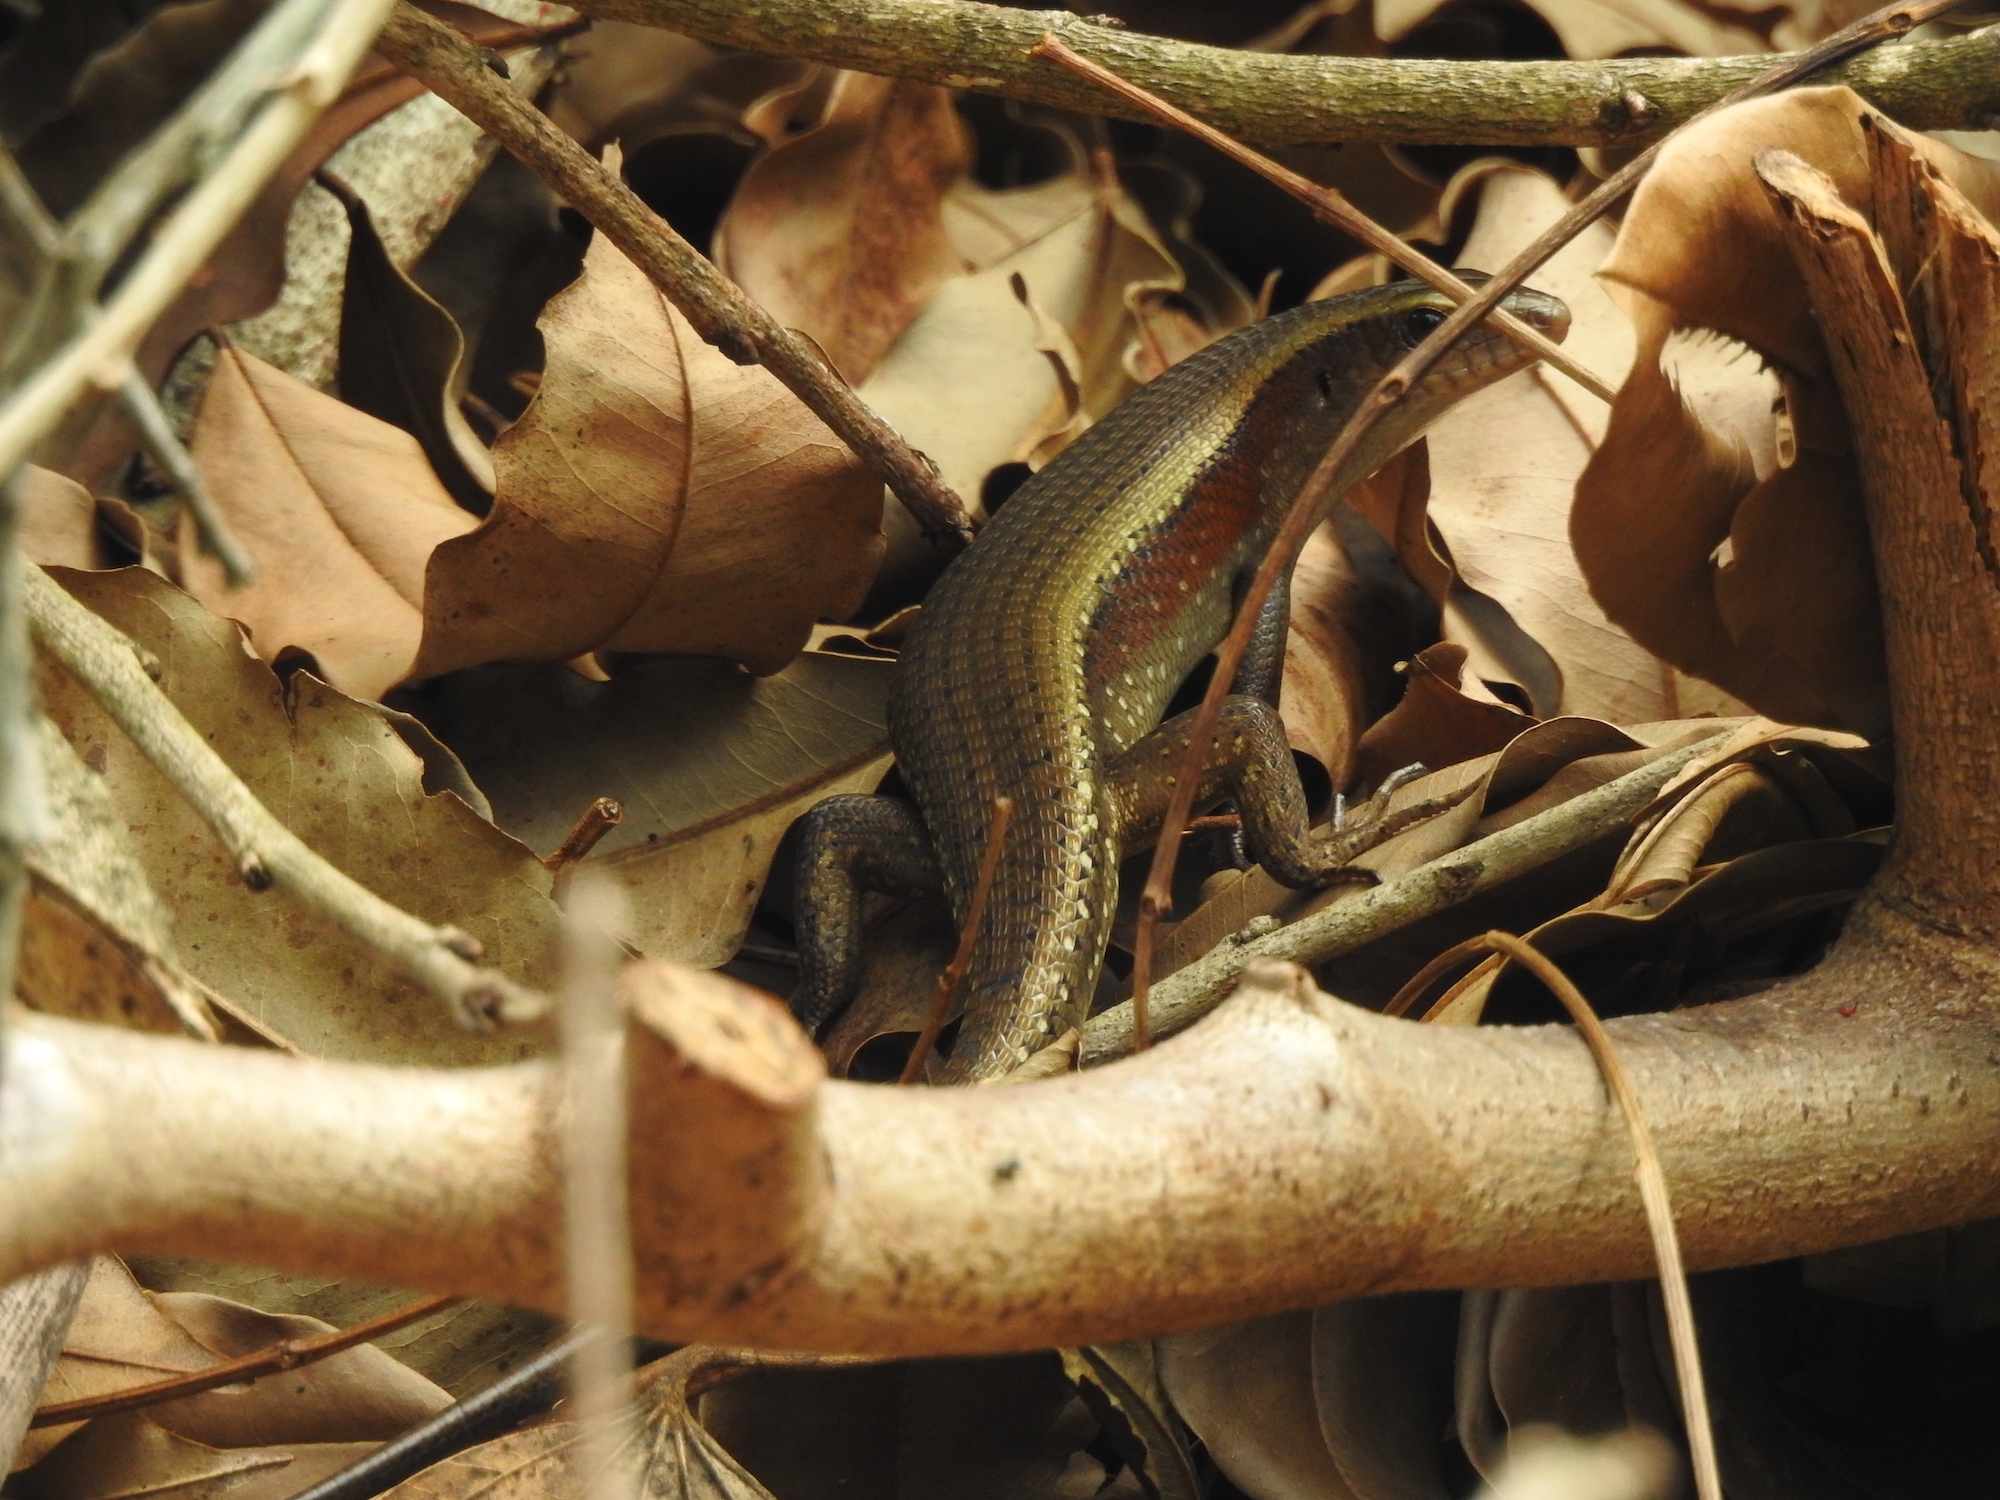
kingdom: Animalia
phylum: Chordata
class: Squamata
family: Scincidae
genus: Eutropis
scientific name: Eutropis multifasciata
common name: Common mabuya
